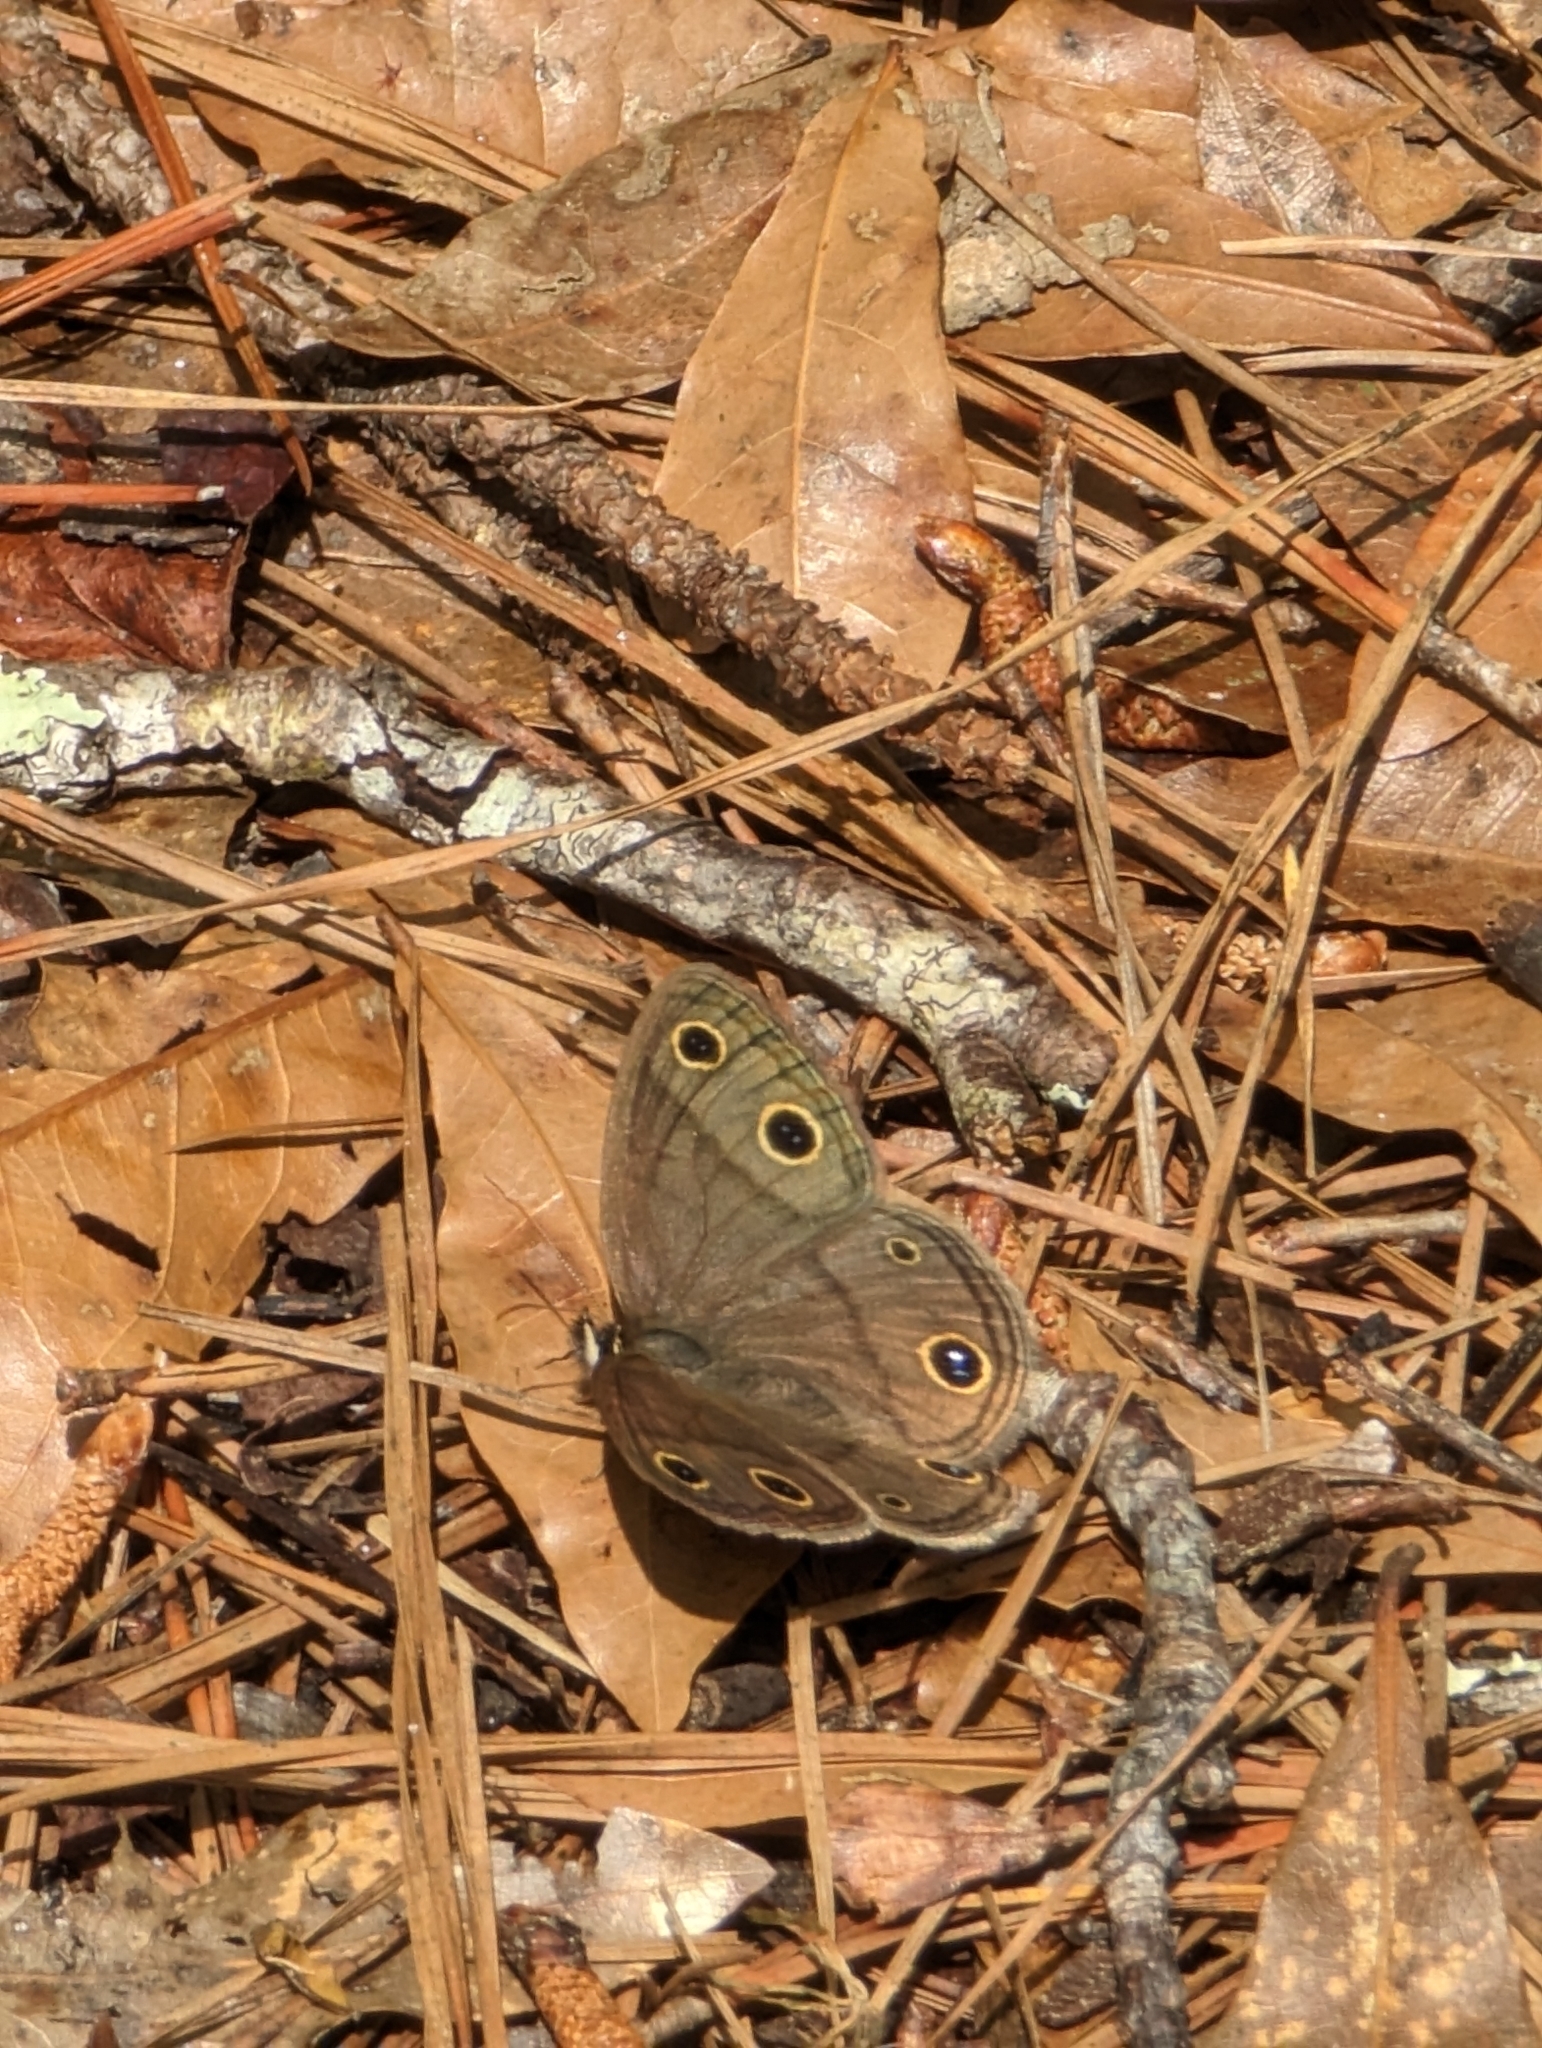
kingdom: Animalia
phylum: Arthropoda
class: Insecta
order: Lepidoptera
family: Nymphalidae
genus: Euptychia
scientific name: Euptychia cymela
